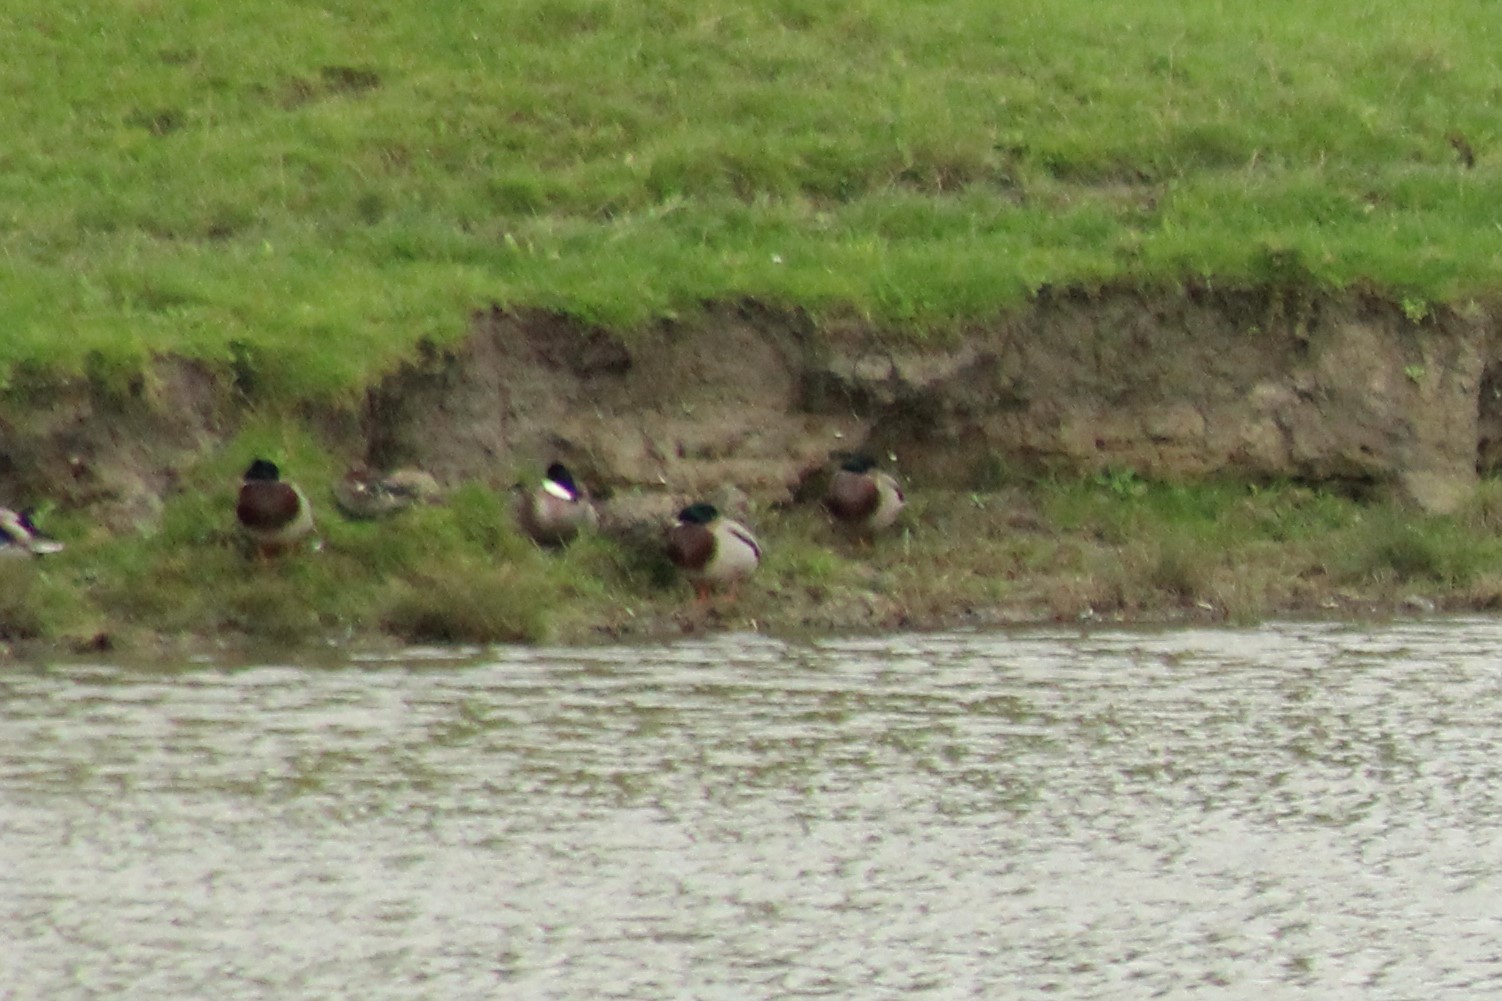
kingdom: Animalia
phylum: Chordata
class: Aves
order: Anseriformes
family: Anatidae
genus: Anas
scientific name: Anas platyrhynchos
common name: Mallard
